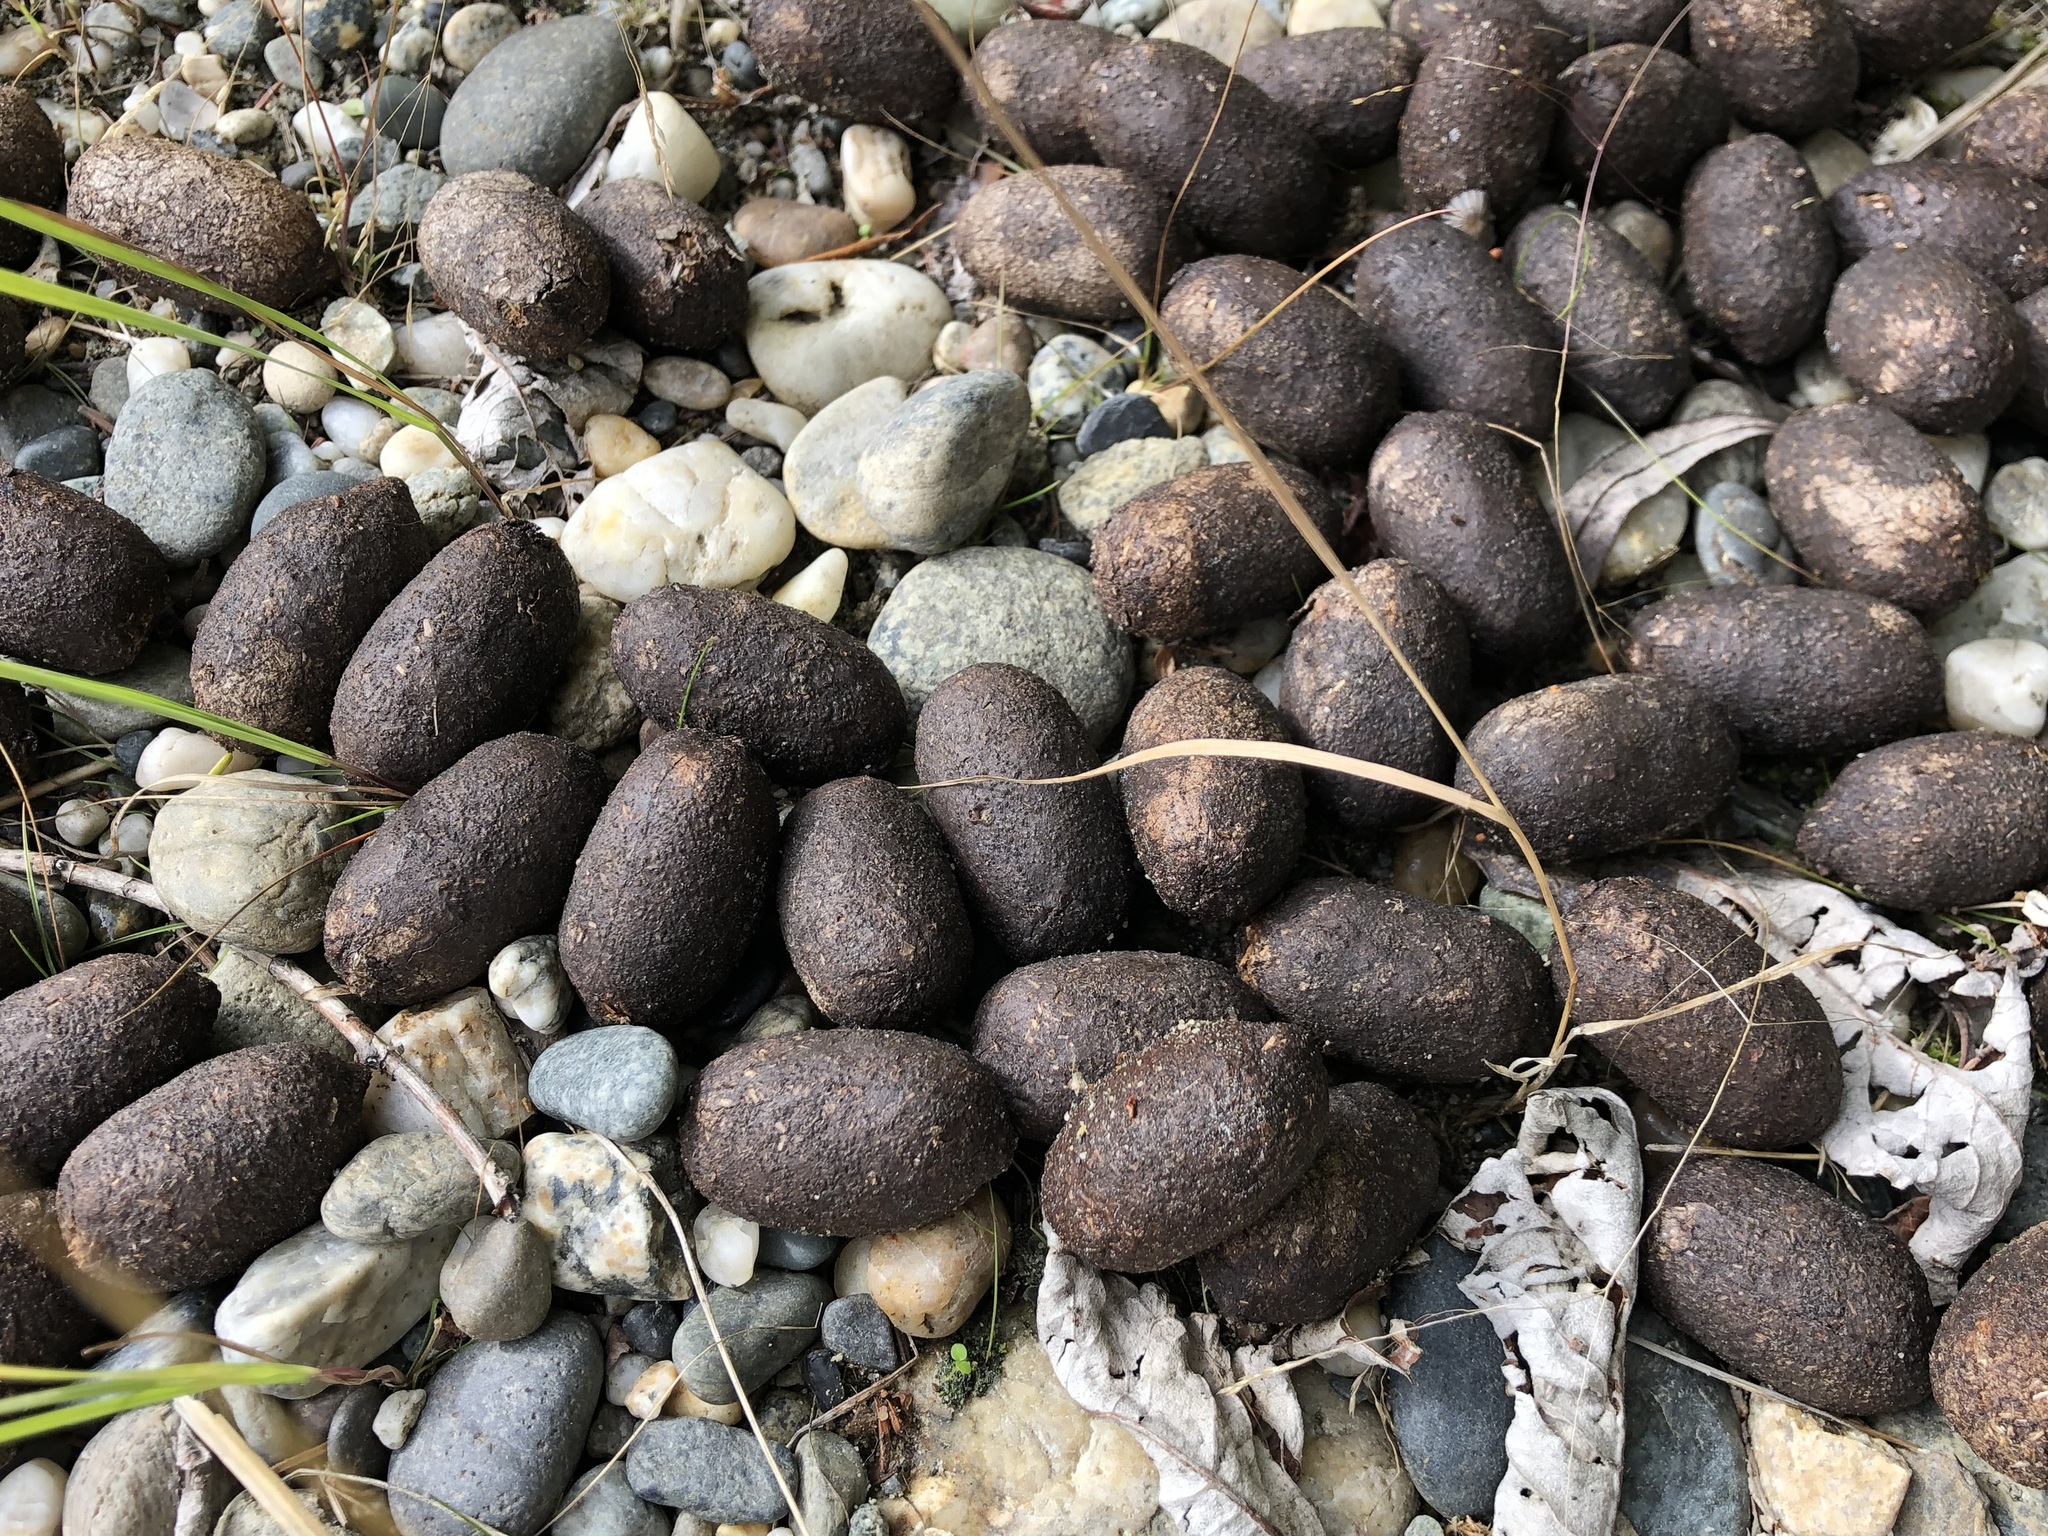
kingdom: Animalia
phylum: Chordata
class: Mammalia
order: Artiodactyla
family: Cervidae
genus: Alces
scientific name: Alces alces
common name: Moose
